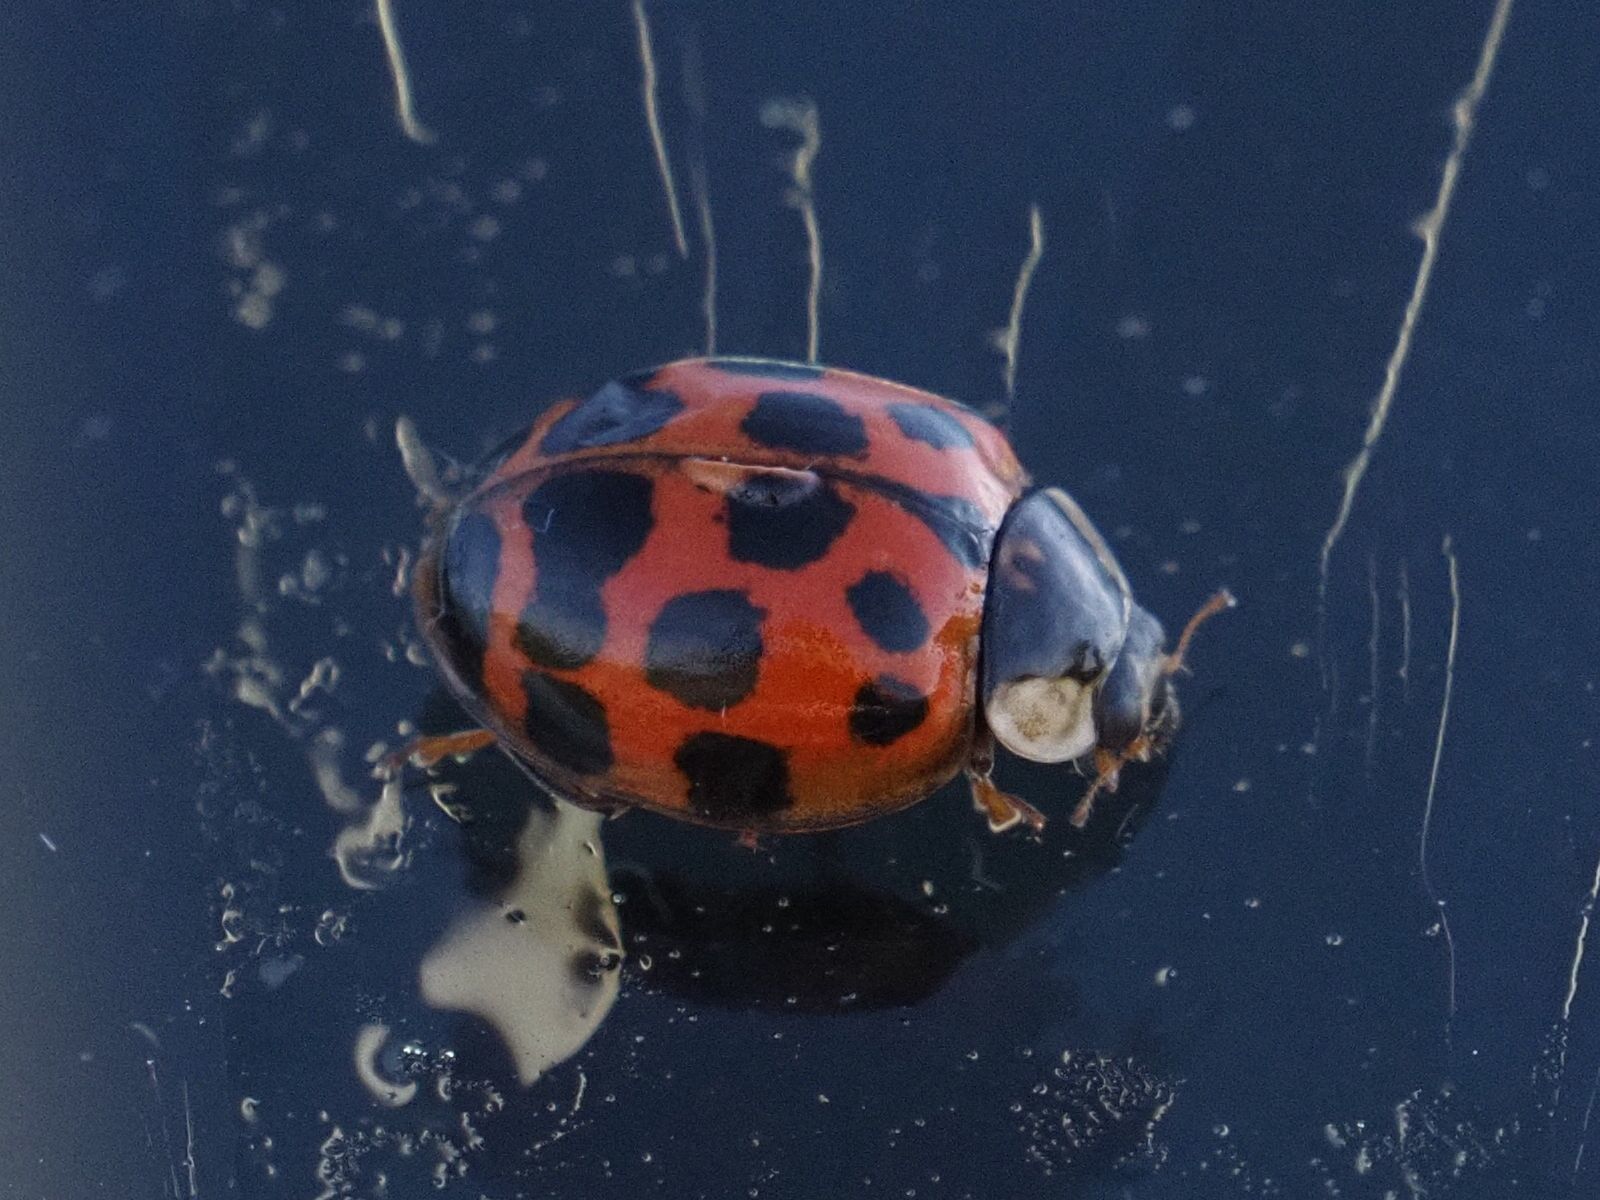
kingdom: Animalia
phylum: Arthropoda
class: Insecta
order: Coleoptera
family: Coccinellidae
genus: Harmonia
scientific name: Harmonia axyridis
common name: Harlequin ladybird
